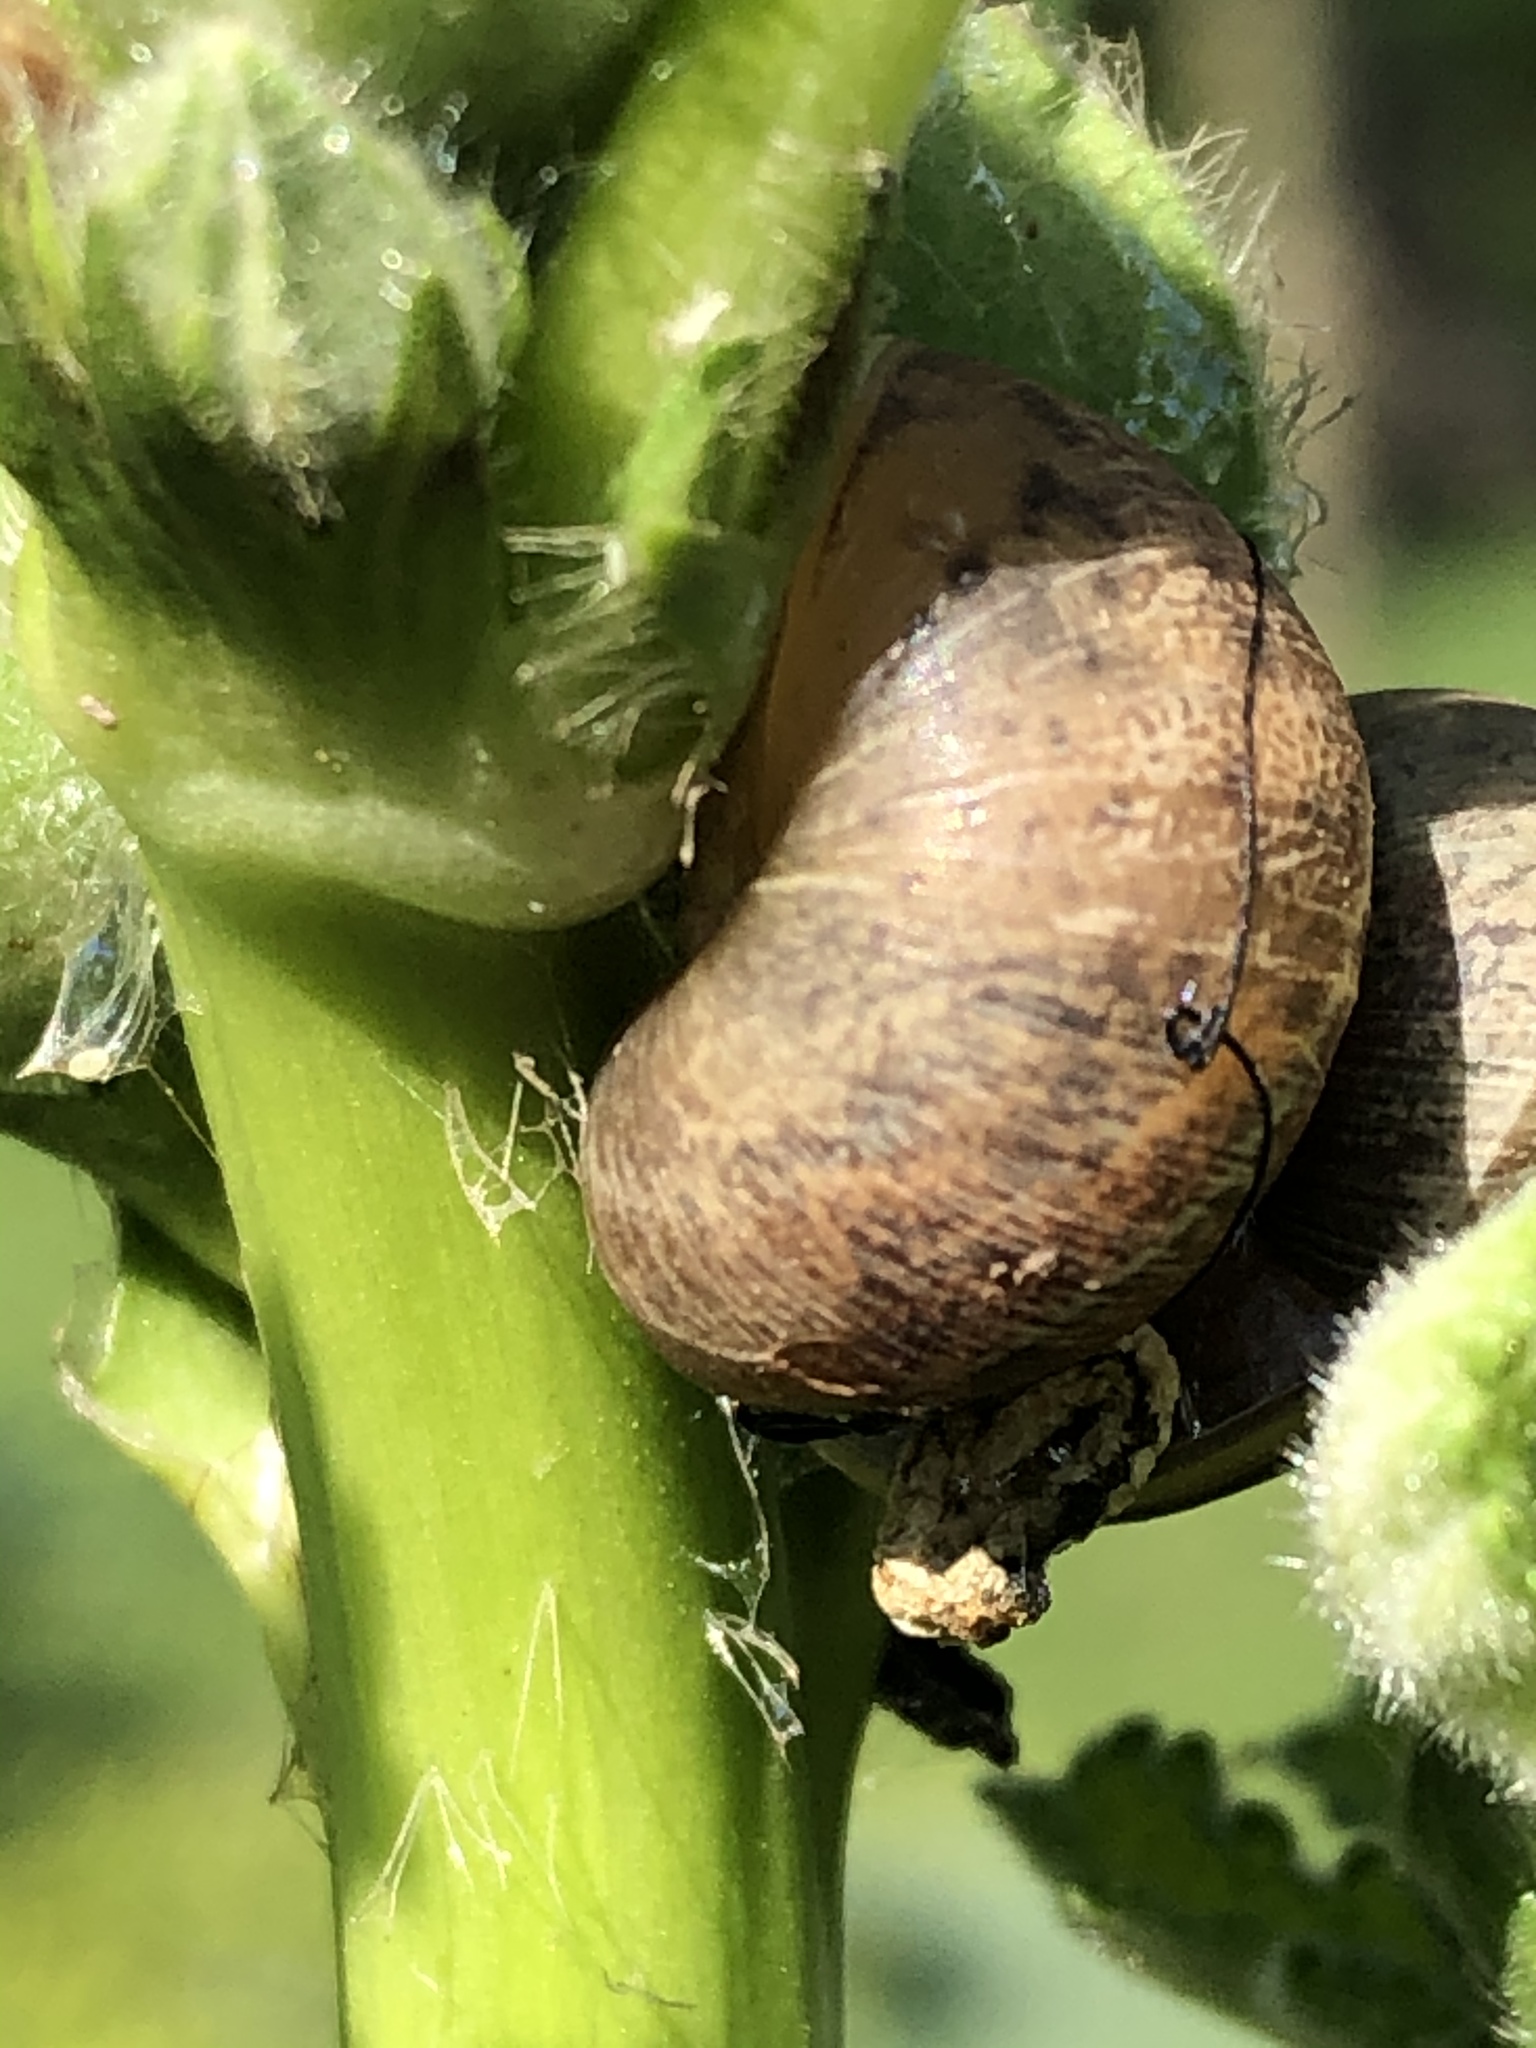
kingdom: Animalia
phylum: Mollusca
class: Gastropoda
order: Stylommatophora
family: Helicidae
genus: Cornu
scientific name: Cornu aspersum
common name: Brown garden snail
